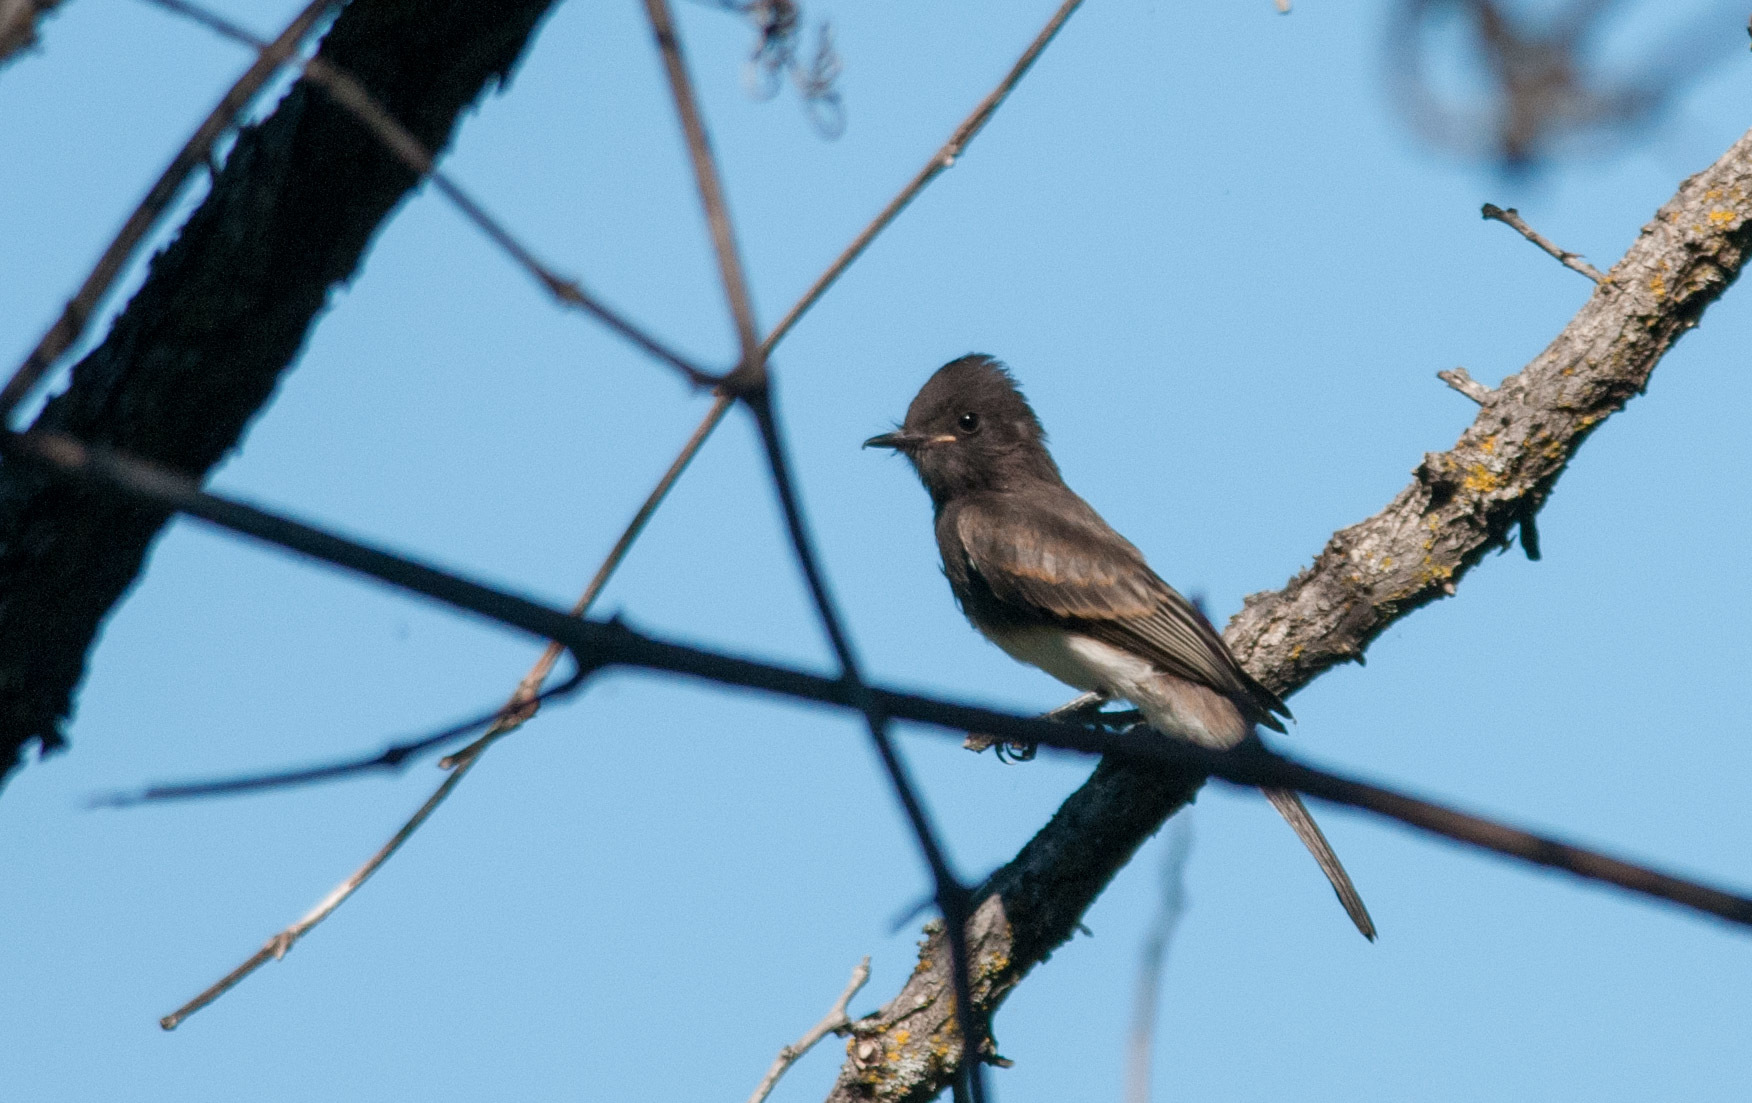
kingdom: Animalia
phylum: Chordata
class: Aves
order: Passeriformes
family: Tyrannidae
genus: Sayornis
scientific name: Sayornis nigricans
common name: Black phoebe
